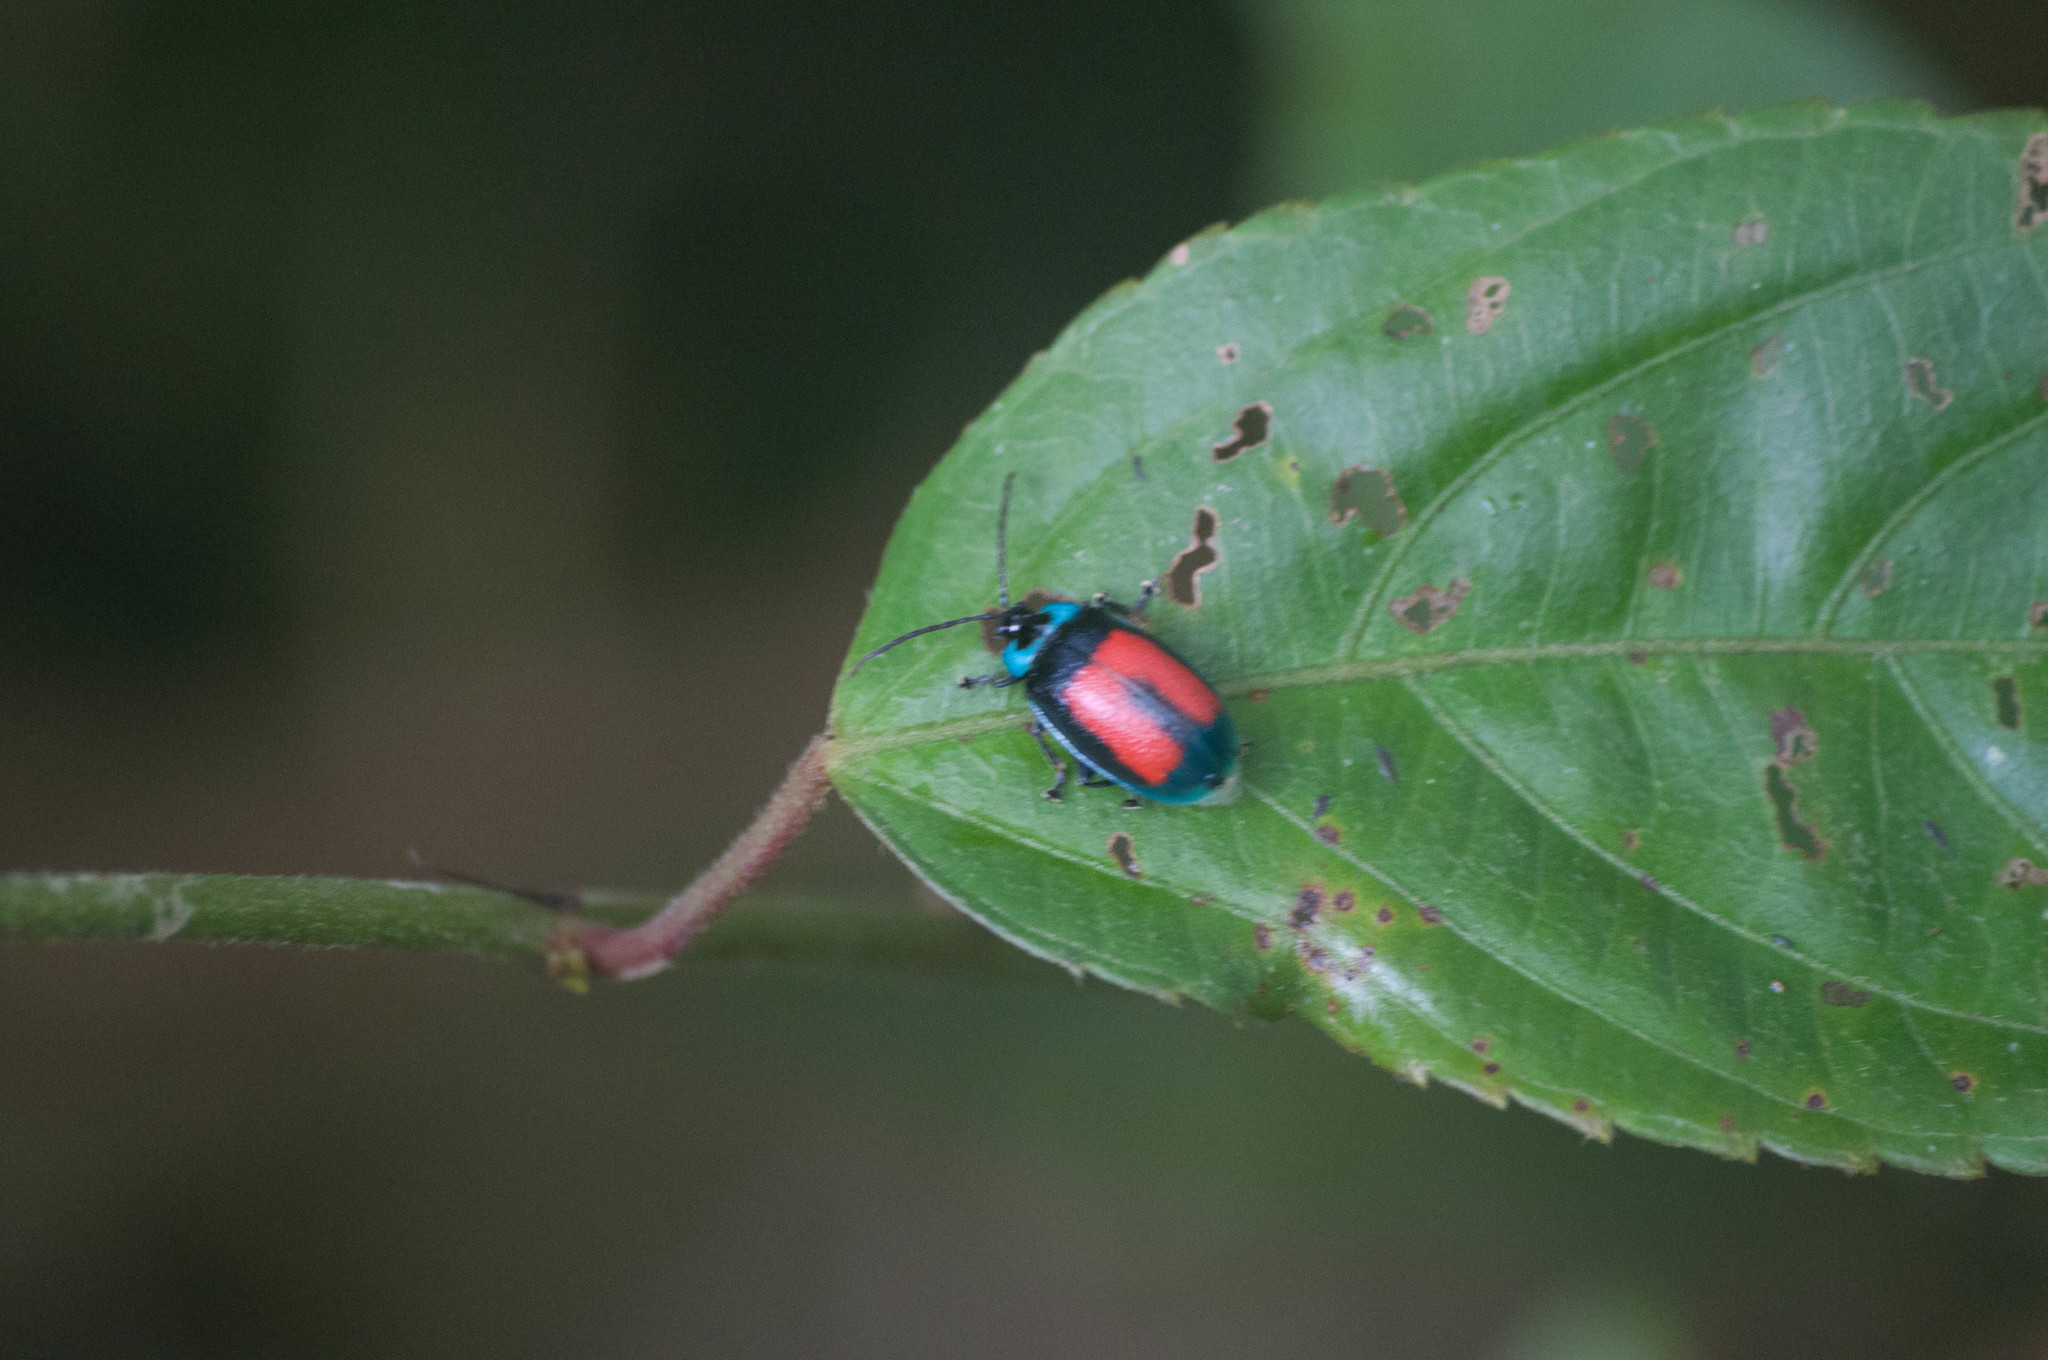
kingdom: Animalia
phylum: Arthropoda
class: Insecta
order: Coleoptera
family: Chrysomelidae
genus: Aspicela
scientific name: Aspicela
